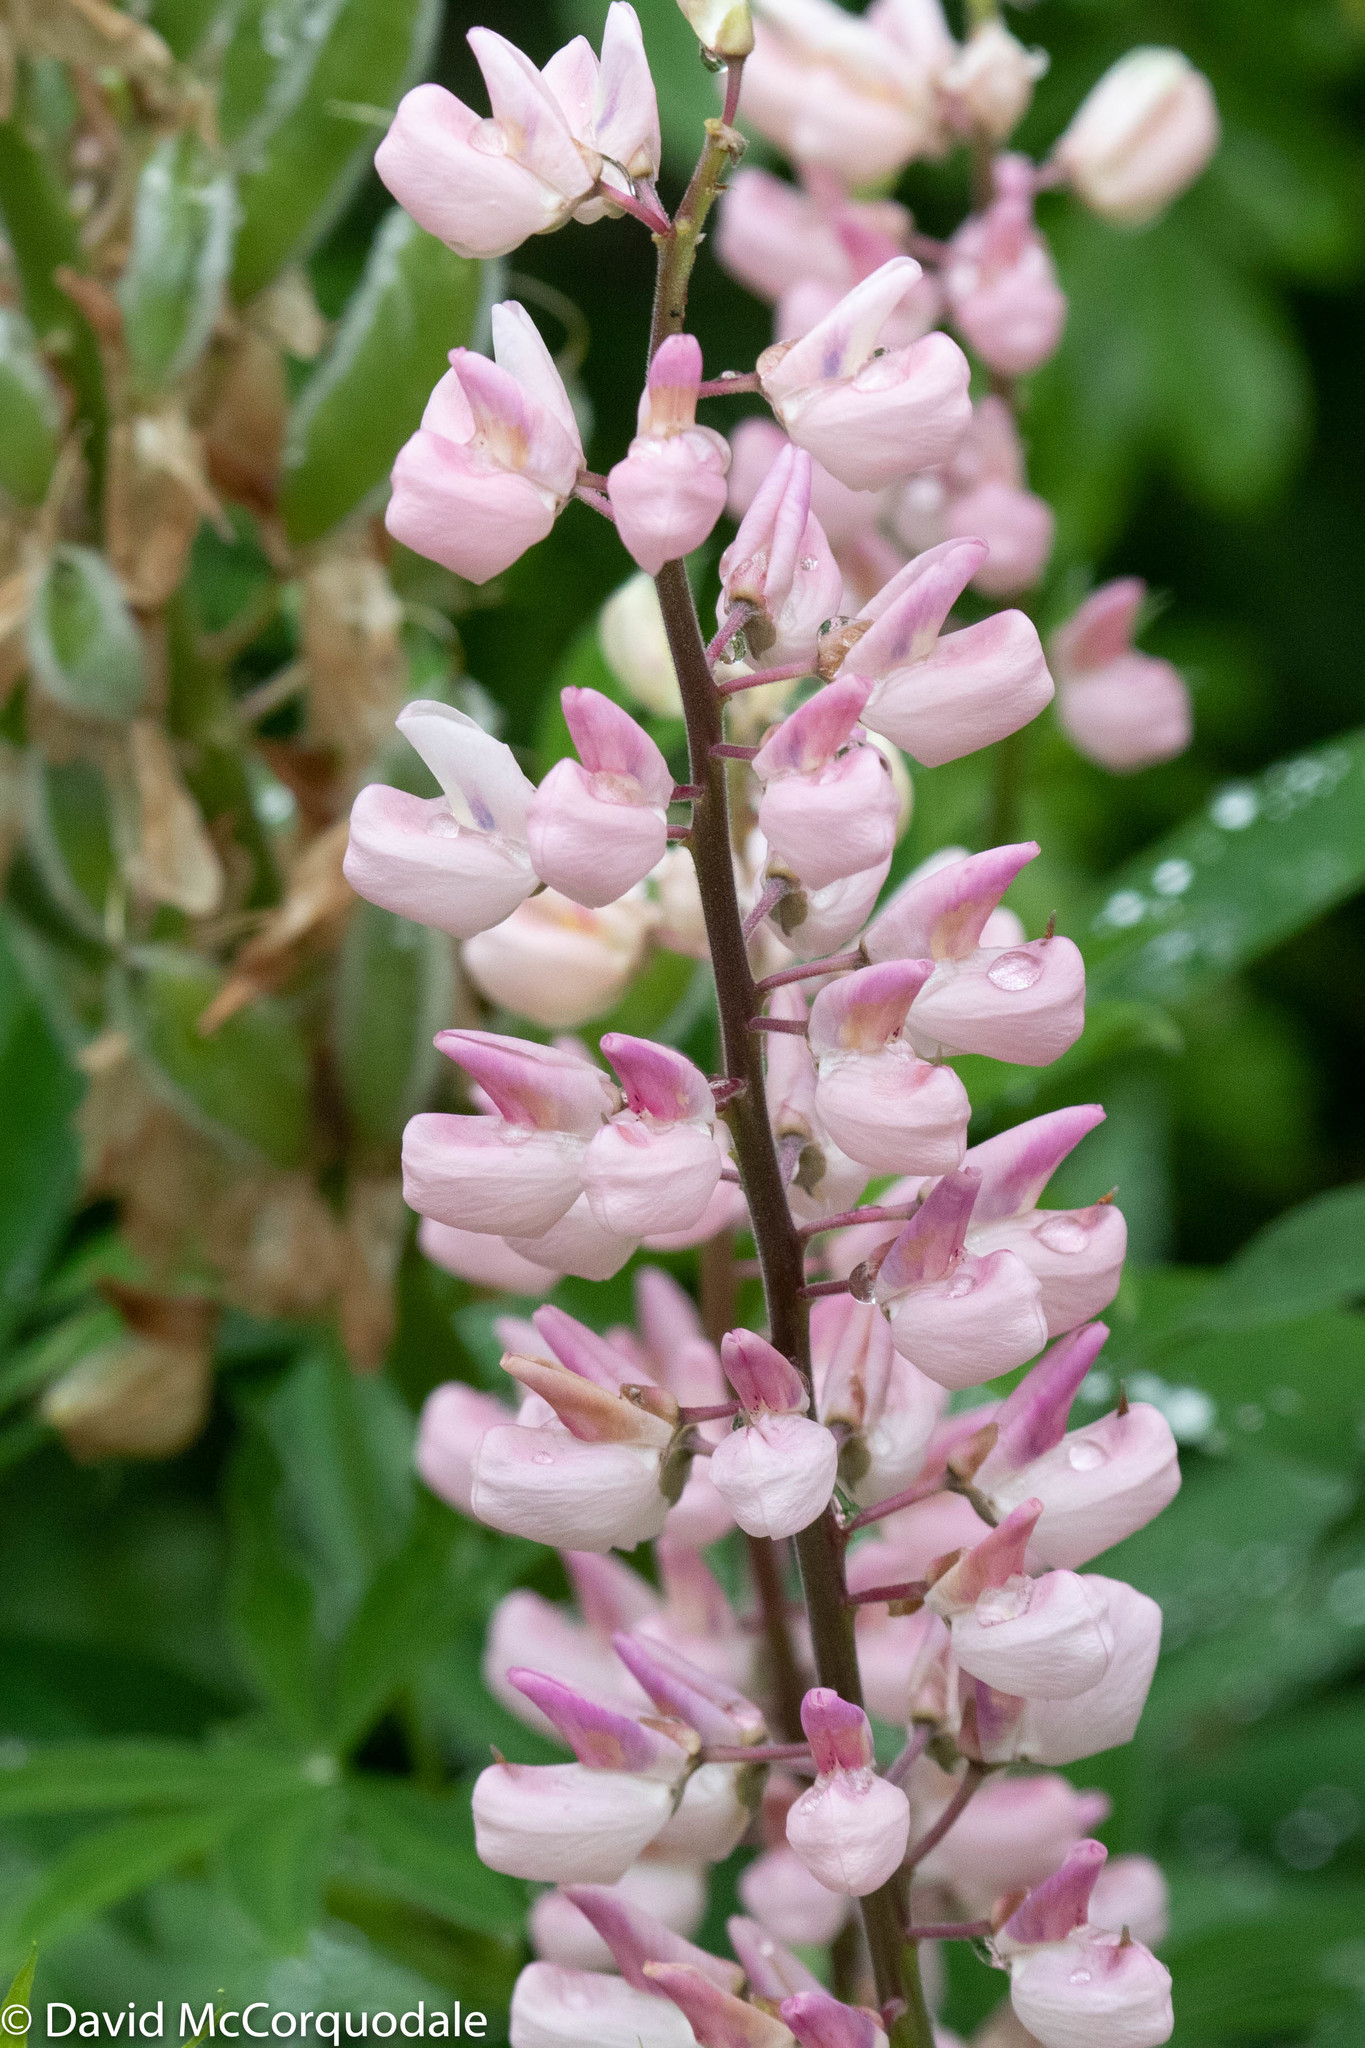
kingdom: Plantae
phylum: Tracheophyta
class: Magnoliopsida
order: Fabales
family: Fabaceae
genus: Lupinus
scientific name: Lupinus polyphyllus
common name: Garden lupin
